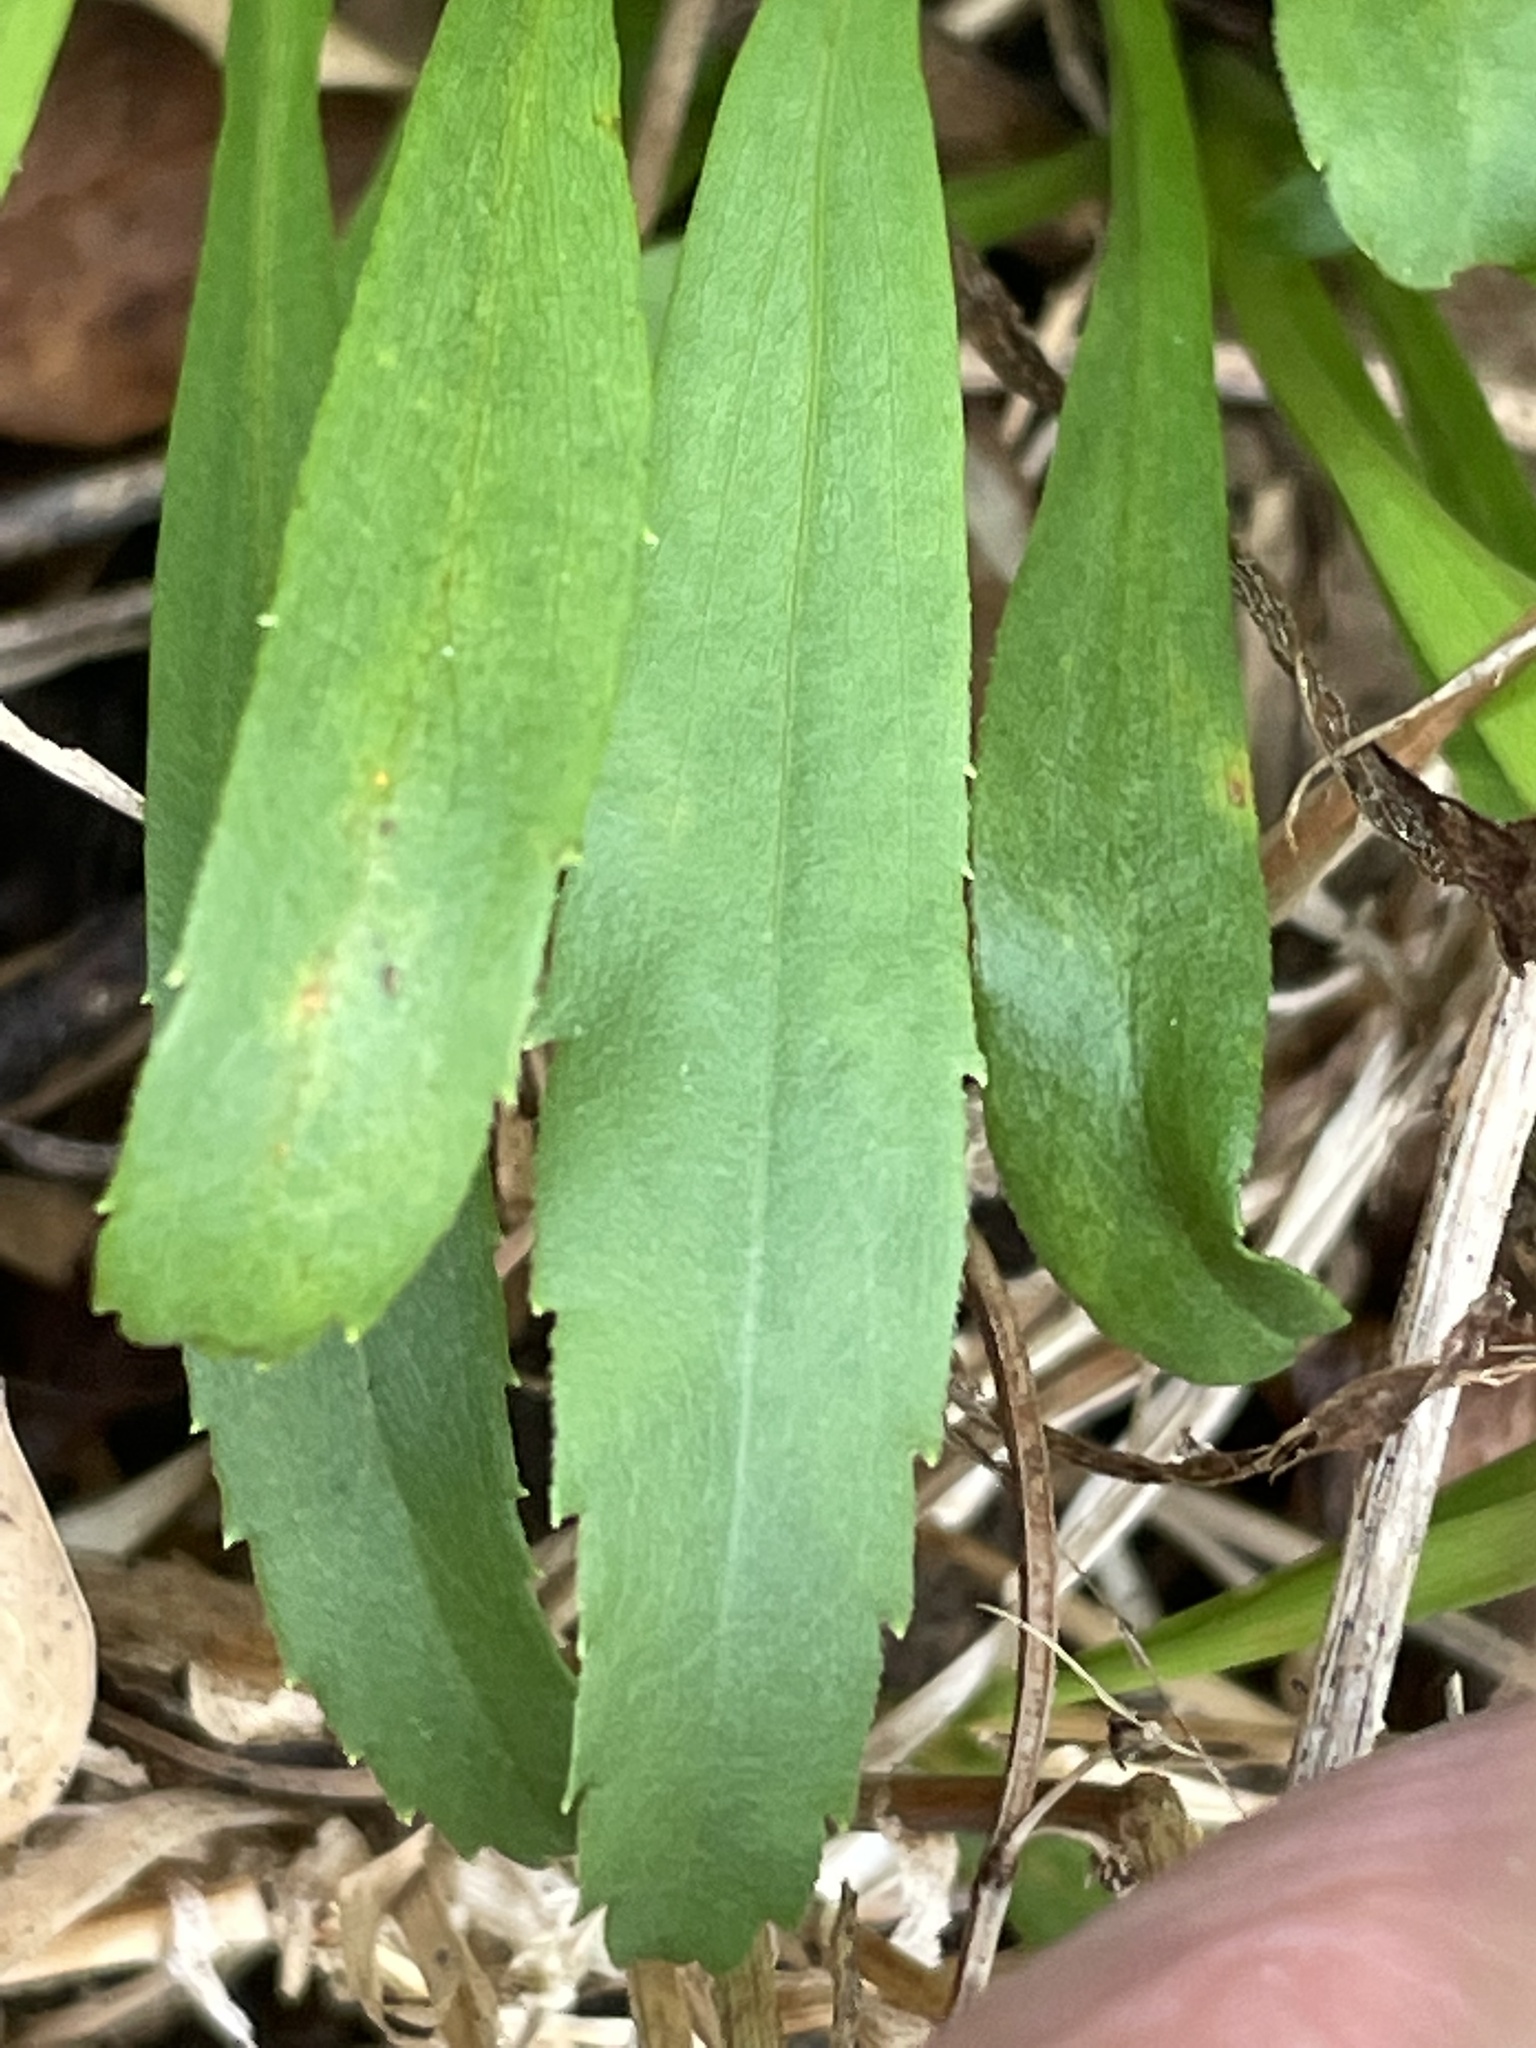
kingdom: Plantae
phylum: Tracheophyta
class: Magnoliopsida
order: Asterales
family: Asteraceae
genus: Solidago
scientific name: Solidago pinetorum
